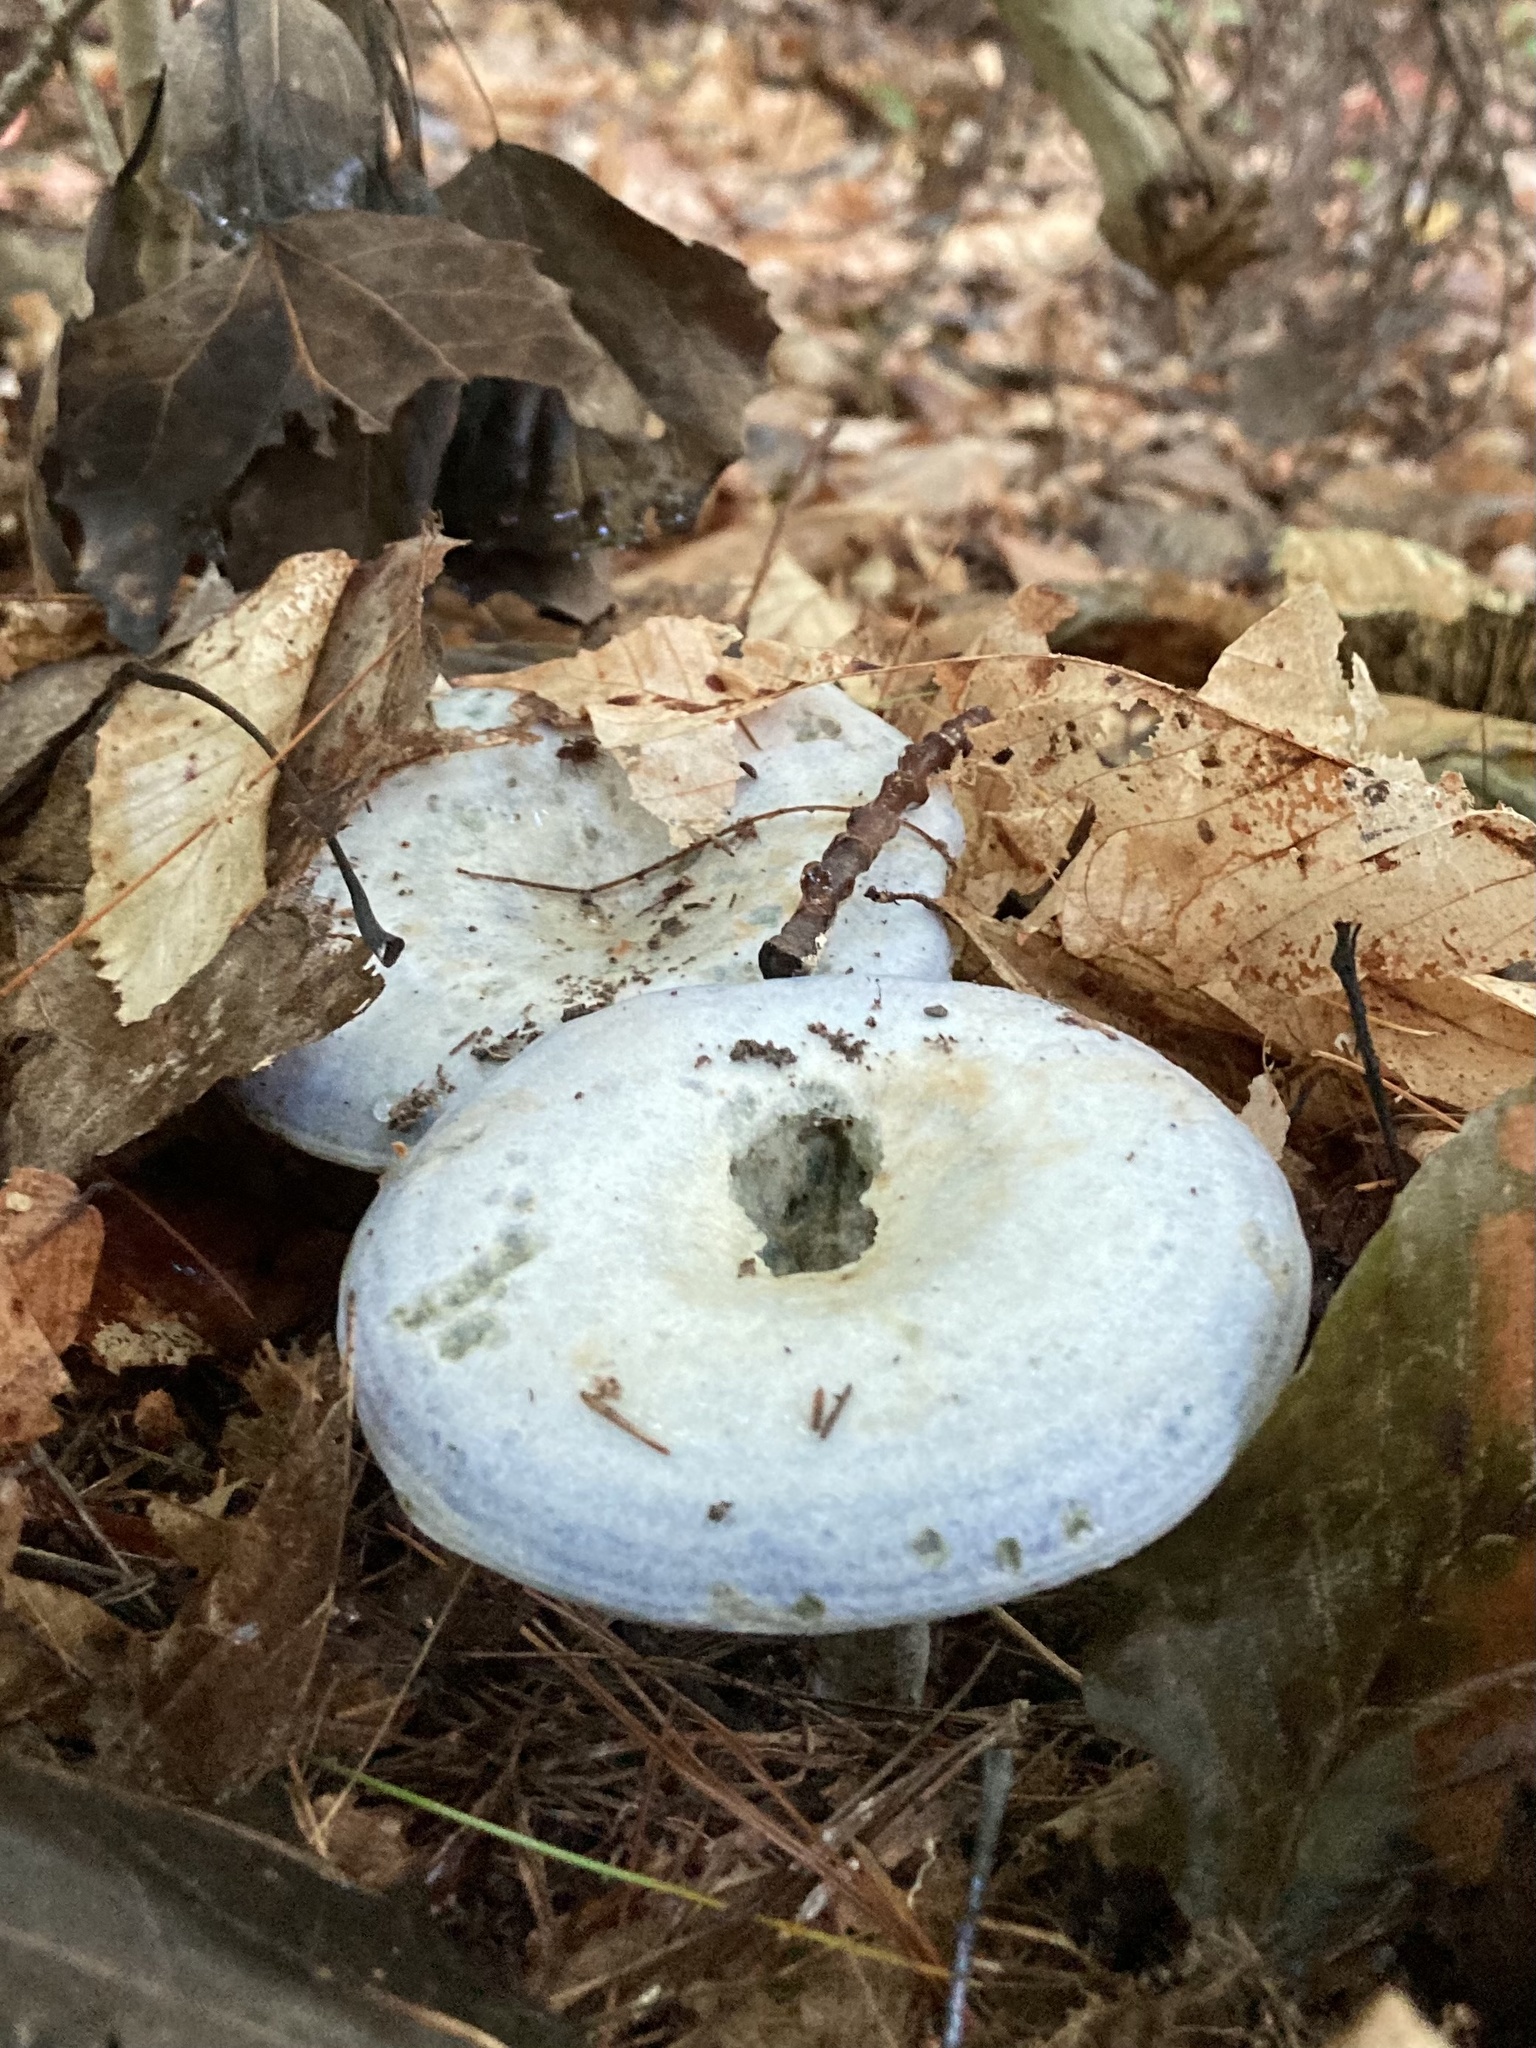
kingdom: Fungi
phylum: Basidiomycota
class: Agaricomycetes
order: Russulales
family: Russulaceae
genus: Lactarius
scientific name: Lactarius indigo
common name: Indigo milk cap
